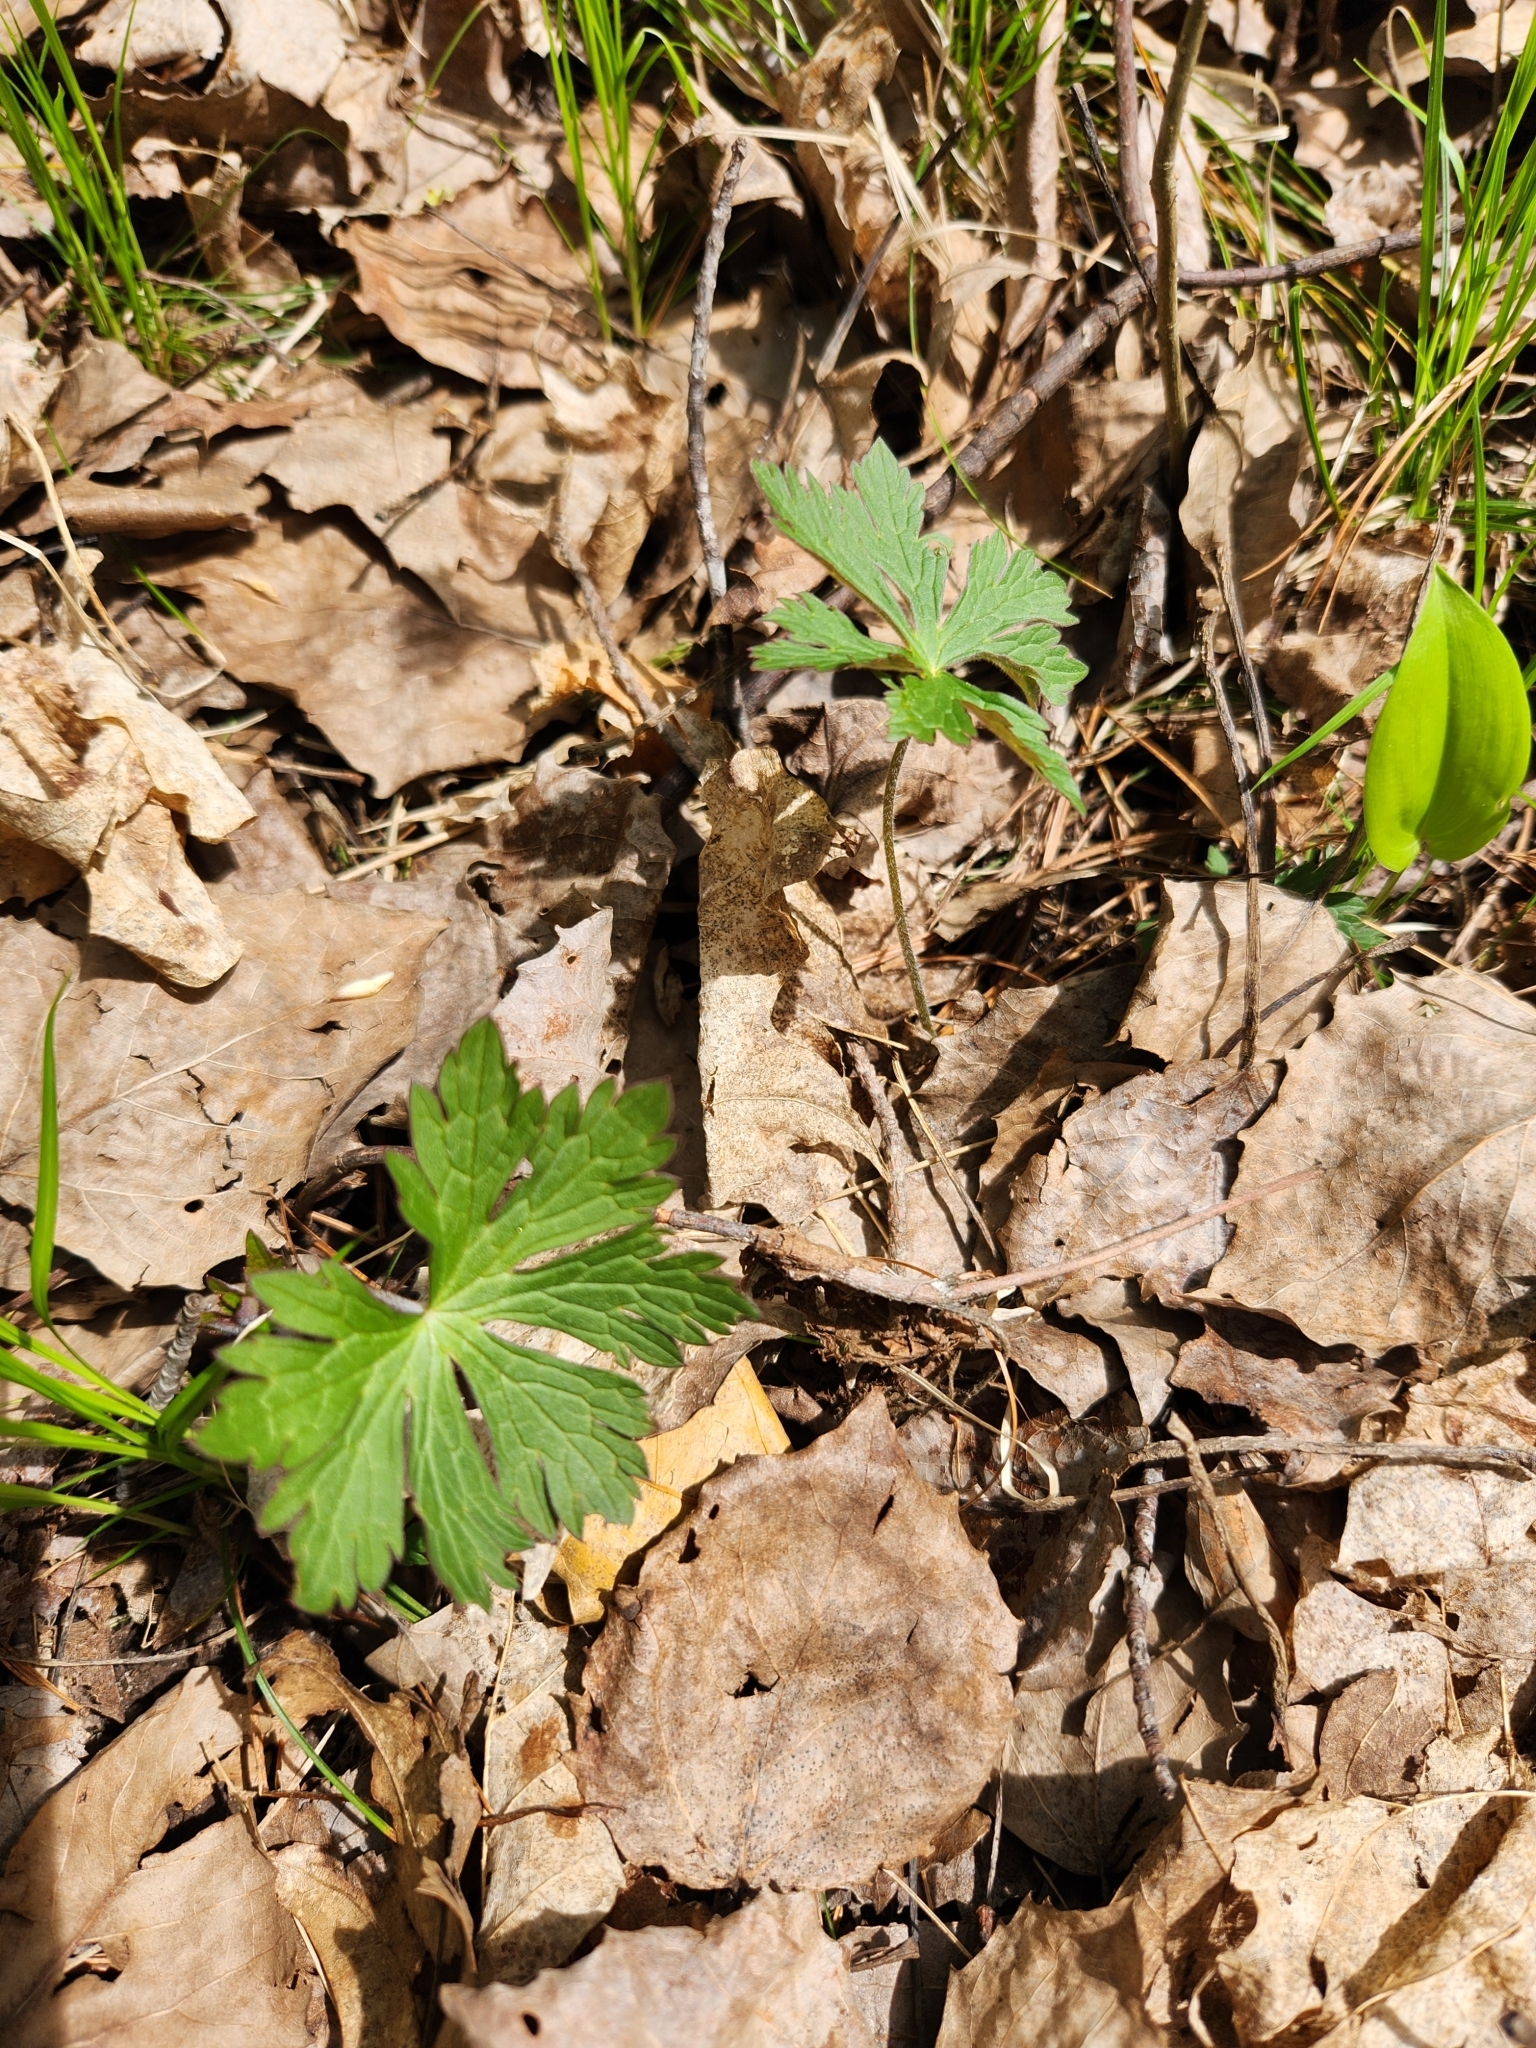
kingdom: Plantae
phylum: Tracheophyta
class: Magnoliopsida
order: Geraniales
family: Geraniaceae
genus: Geranium
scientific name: Geranium maculatum
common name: Spotted geranium
